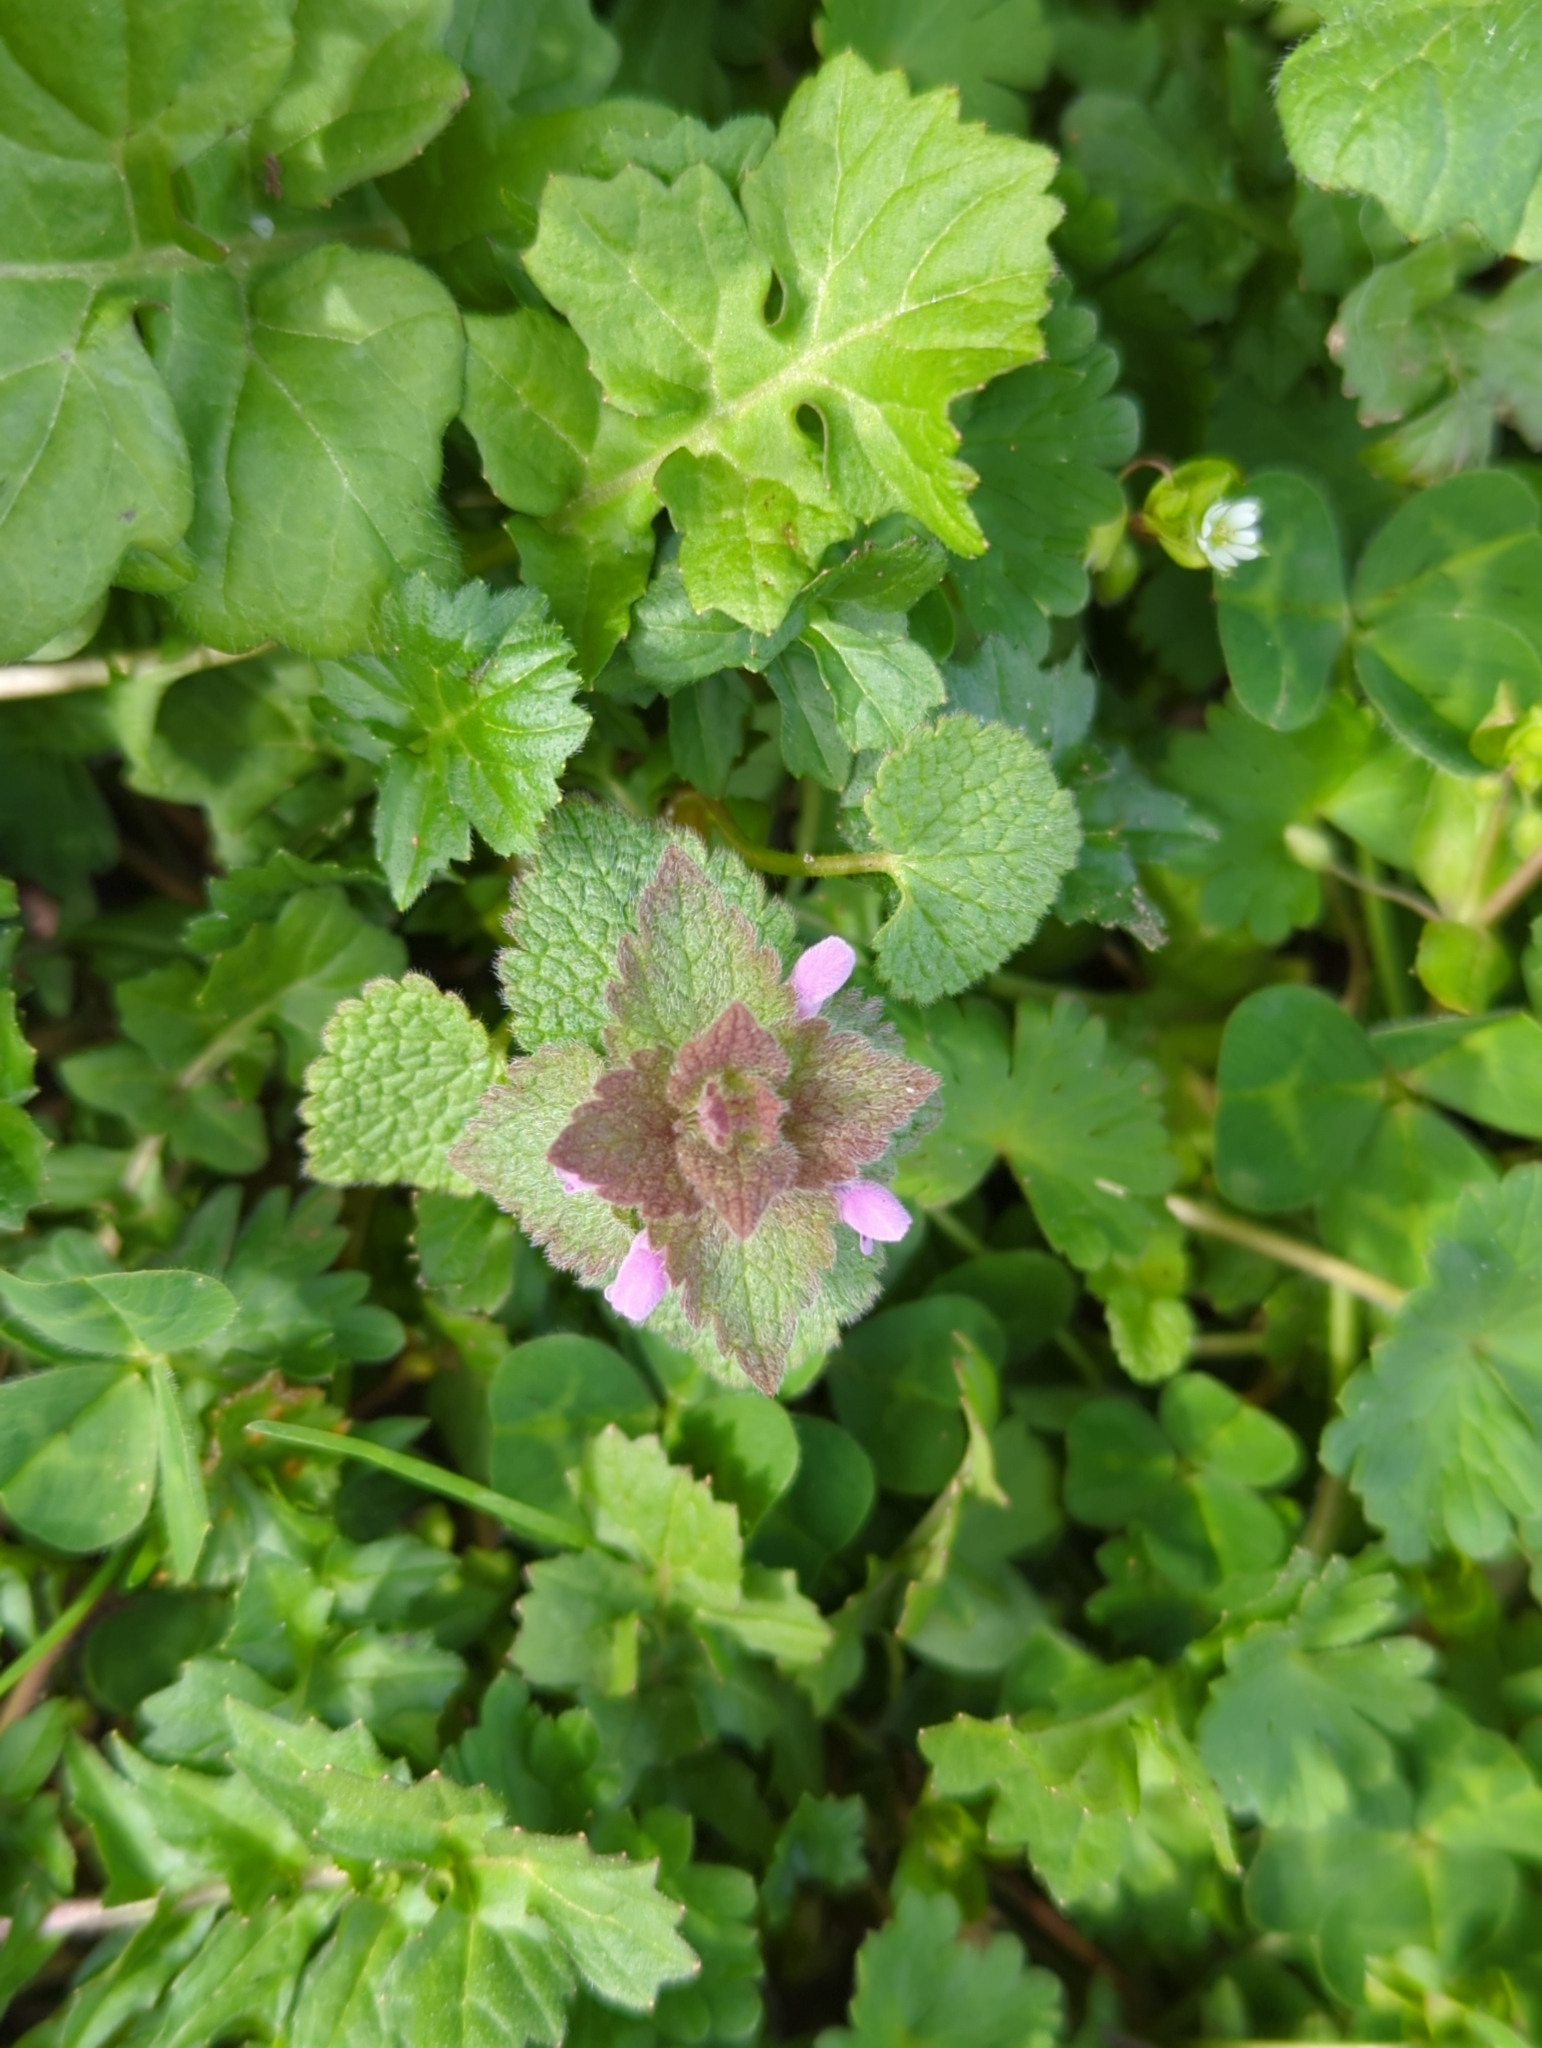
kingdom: Plantae
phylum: Tracheophyta
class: Magnoliopsida
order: Lamiales
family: Lamiaceae
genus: Lamium
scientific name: Lamium purpureum
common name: Red dead-nettle
